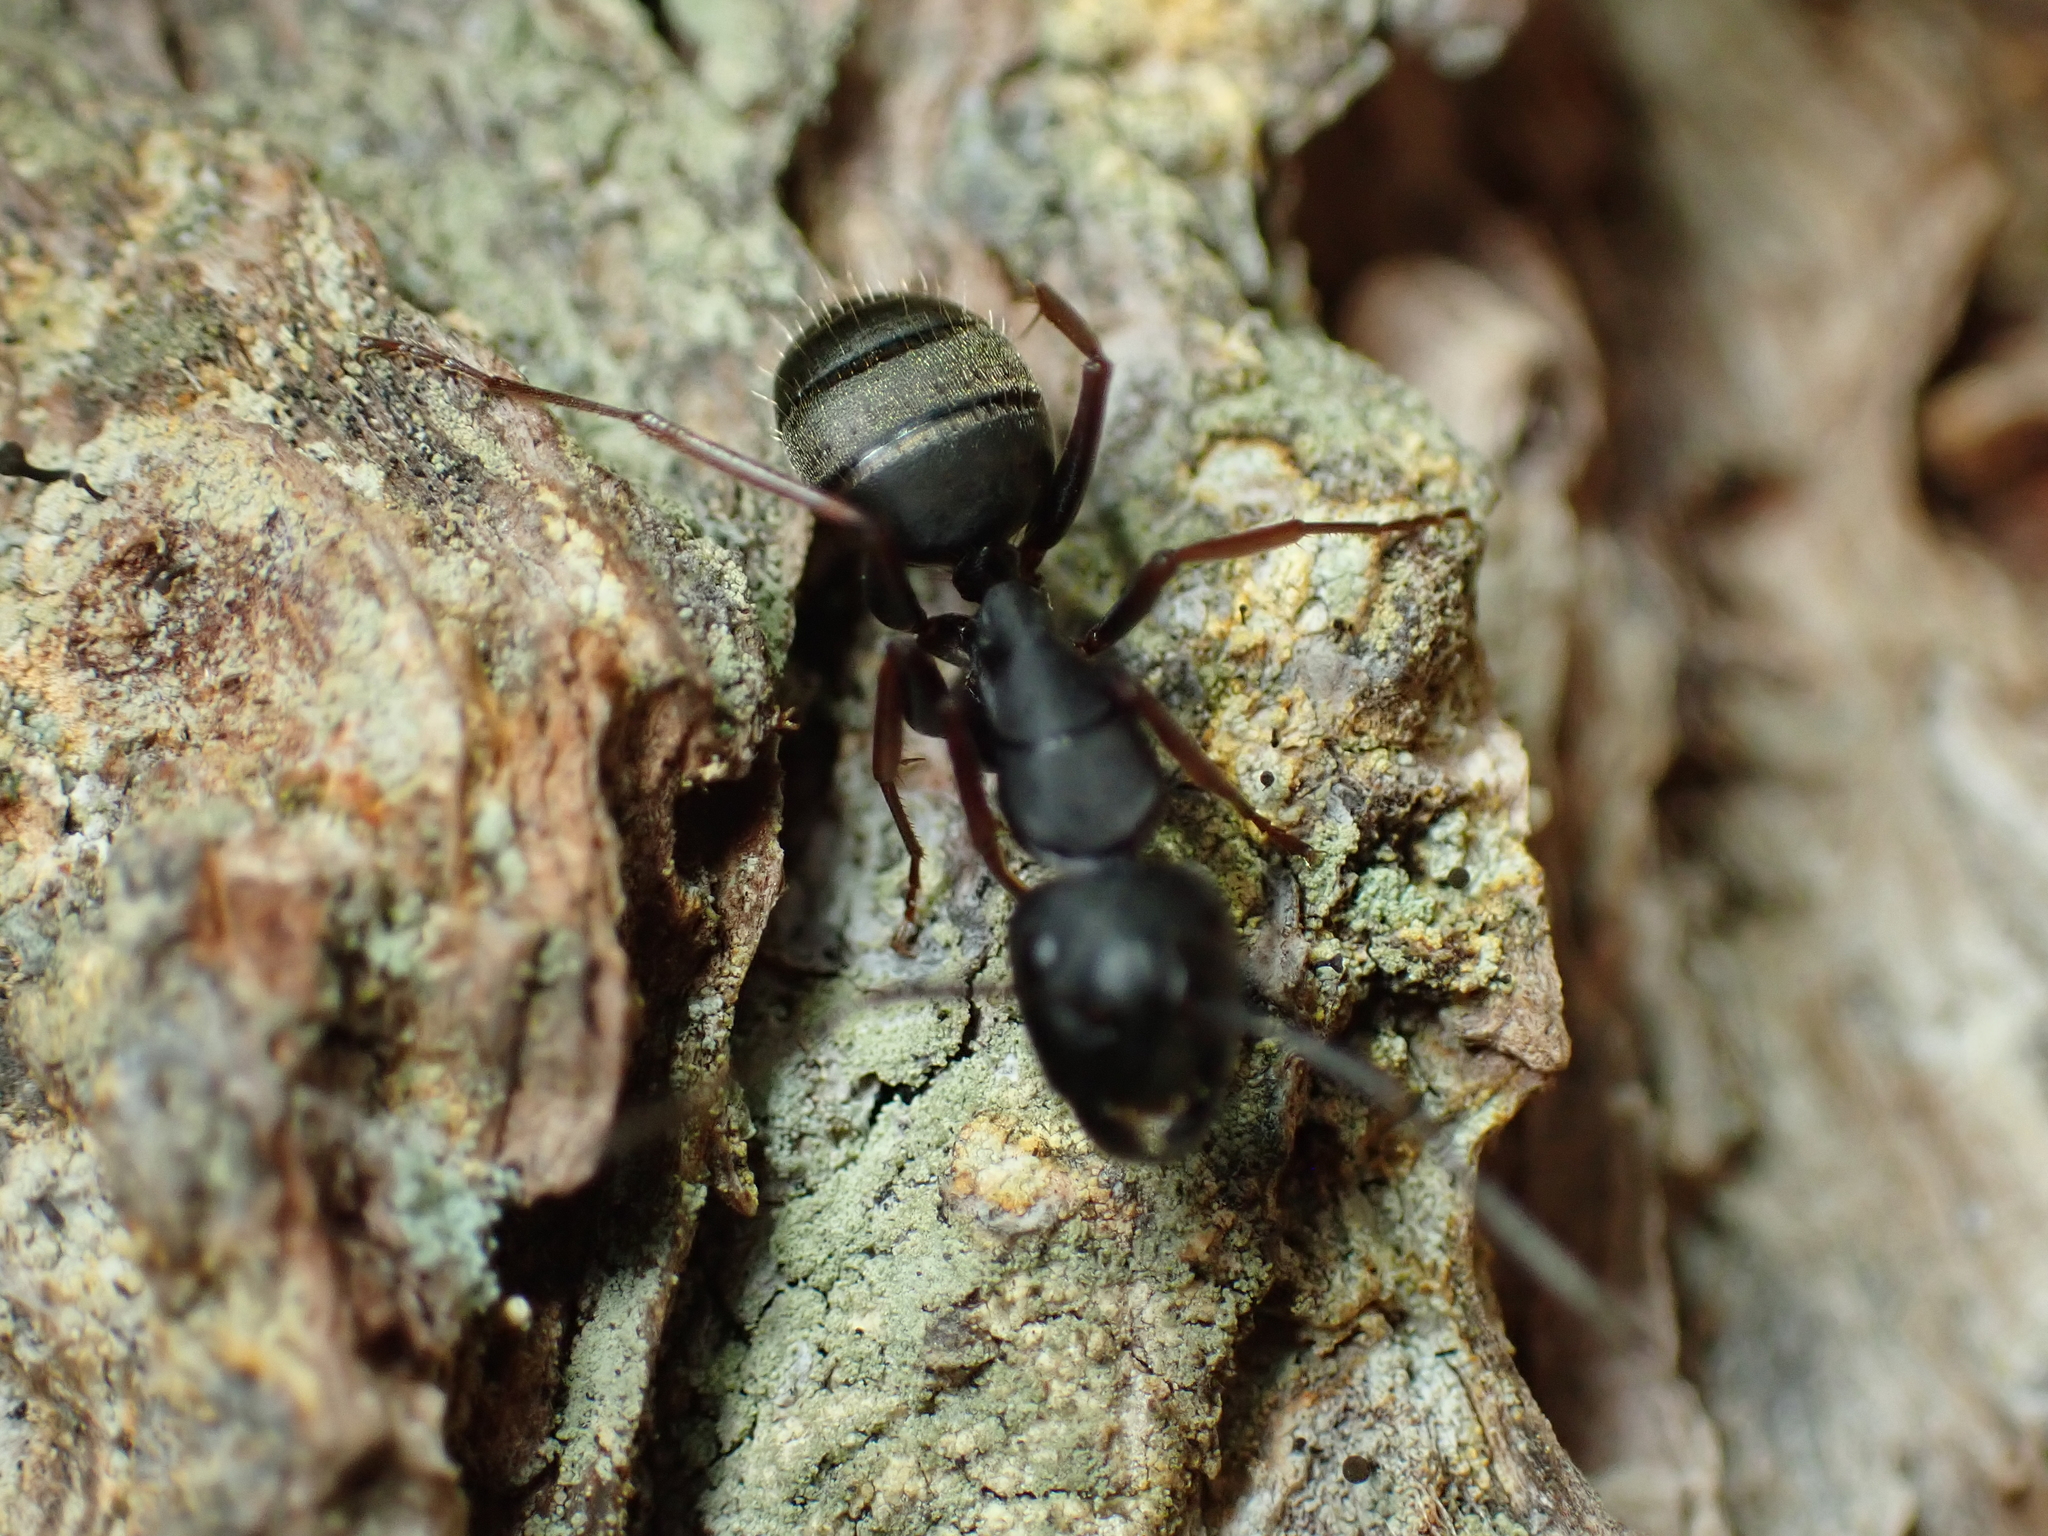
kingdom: Animalia
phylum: Arthropoda
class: Insecta
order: Hymenoptera
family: Formicidae
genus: Camponotus
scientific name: Camponotus modoc
